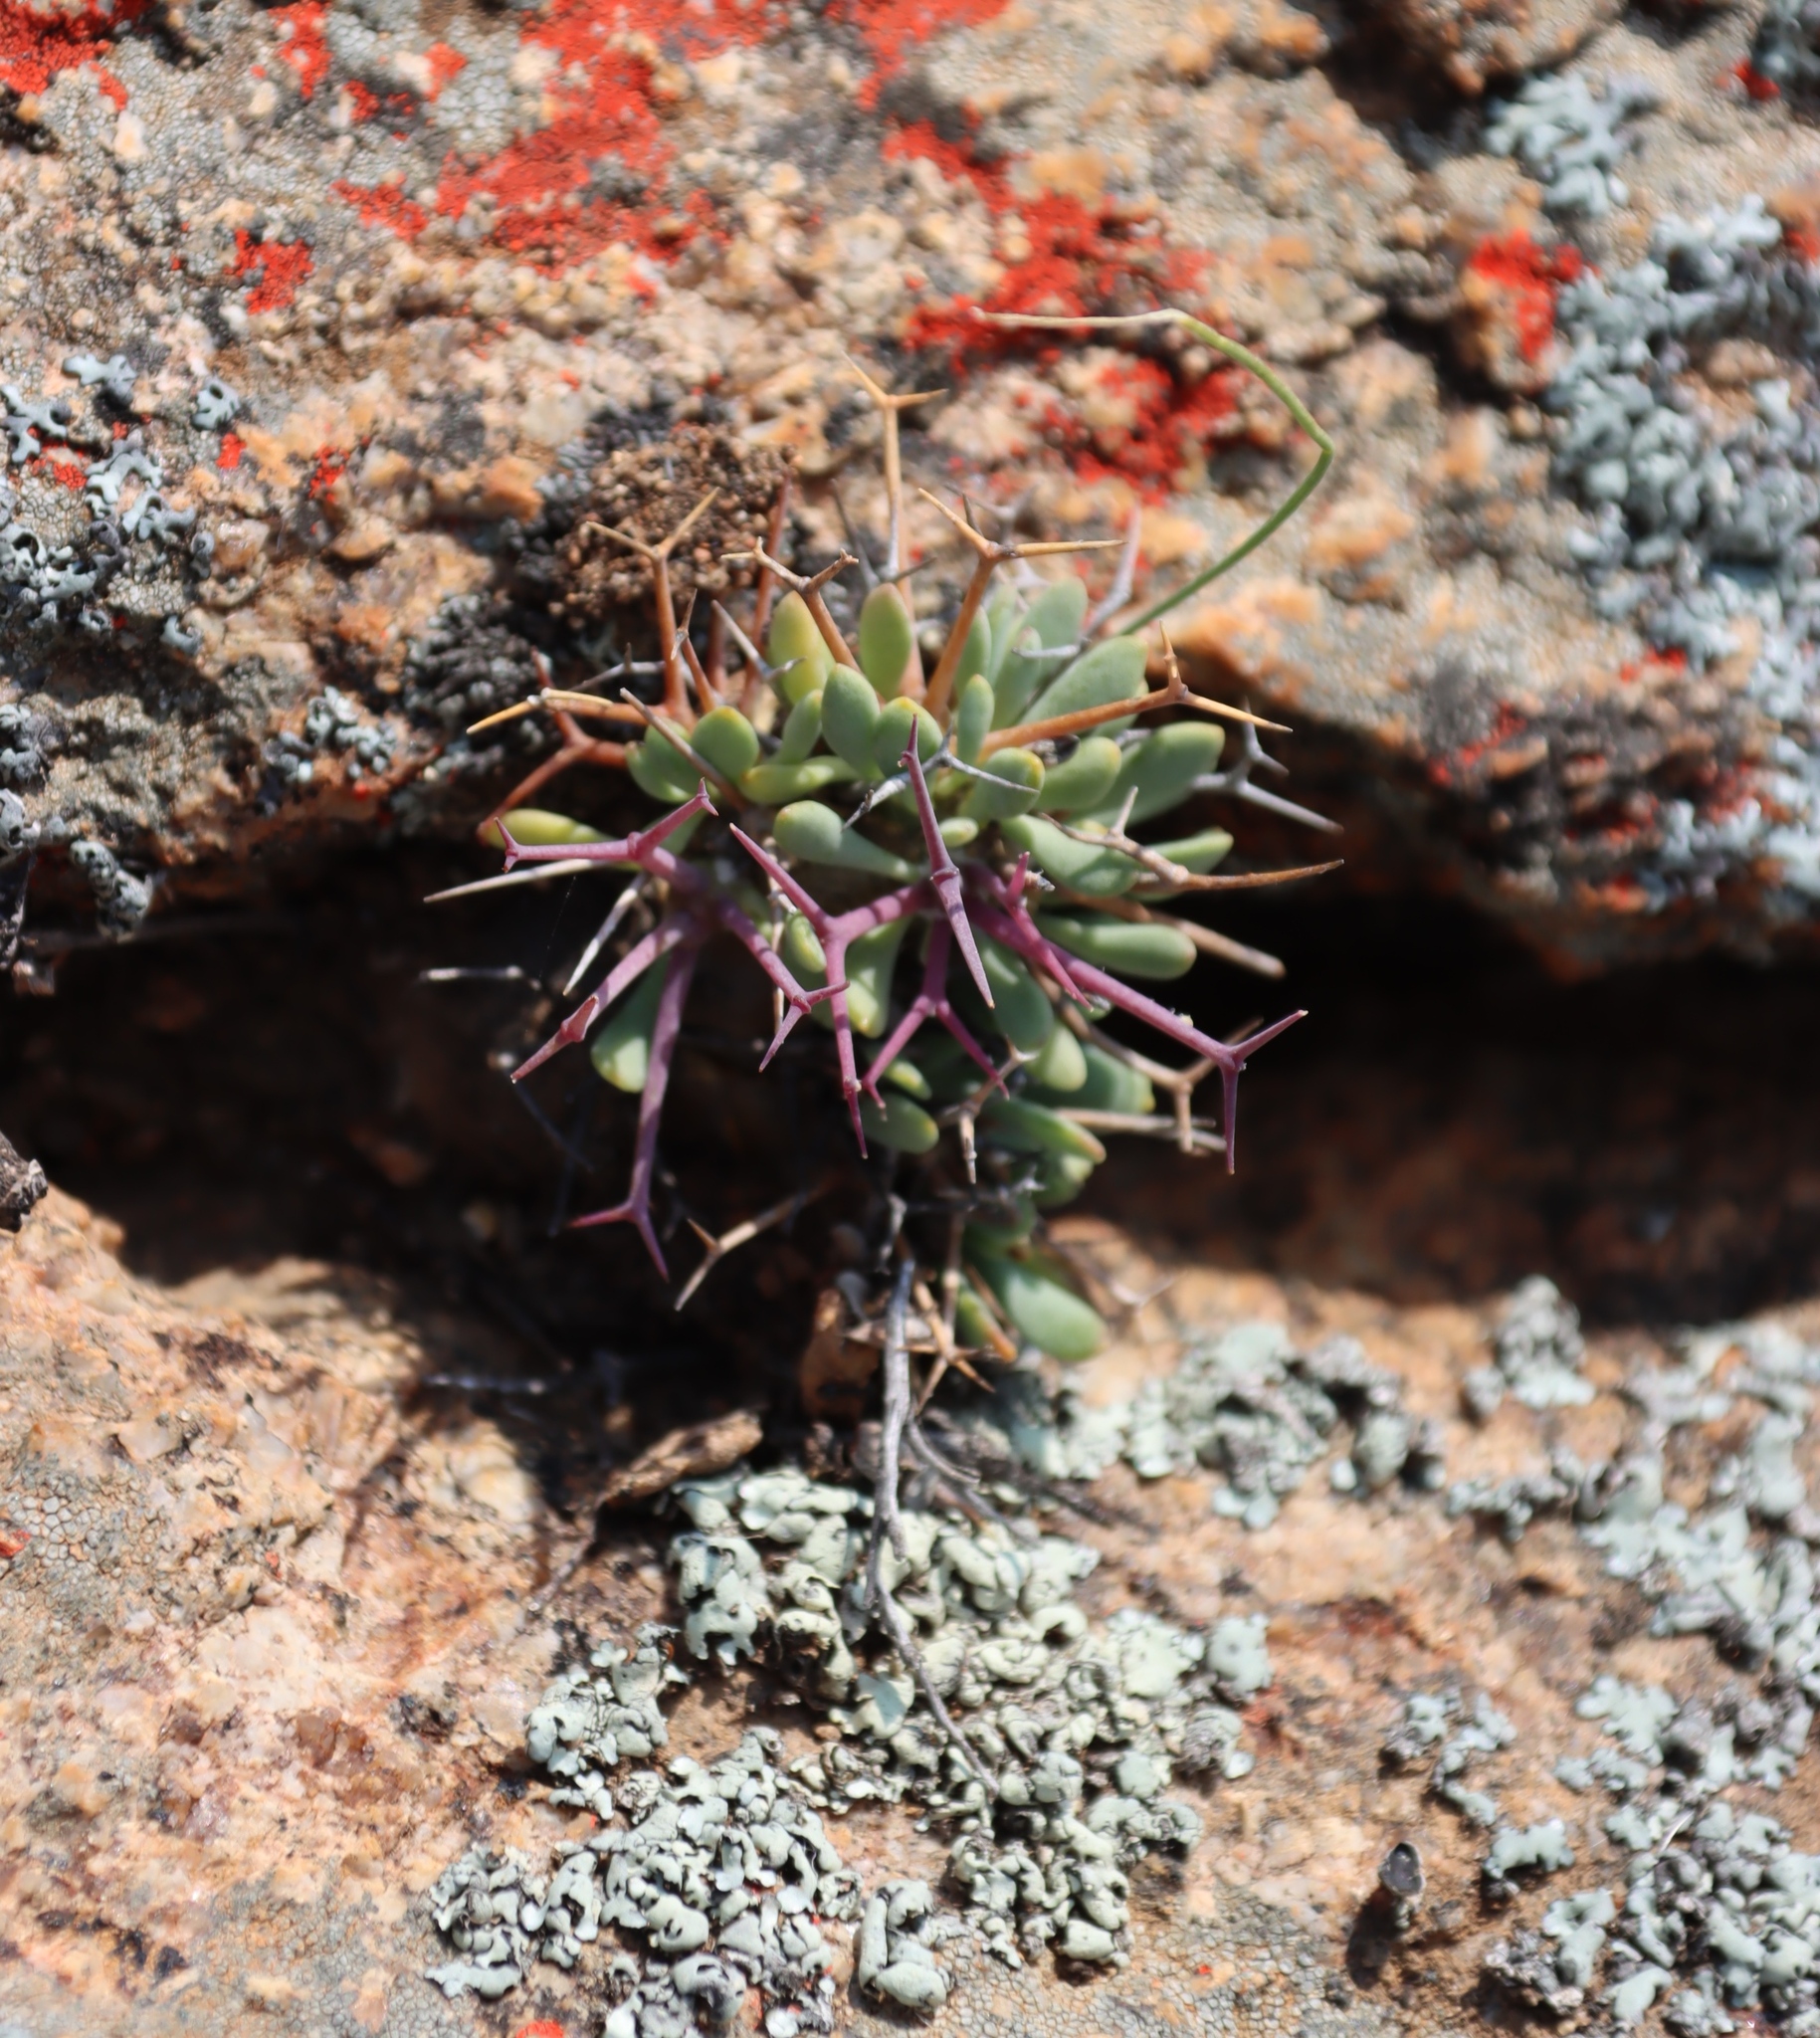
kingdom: Plantae
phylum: Tracheophyta
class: Magnoliopsida
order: Asterales
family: Asteraceae
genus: Othonna
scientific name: Othonna euphorbioides
